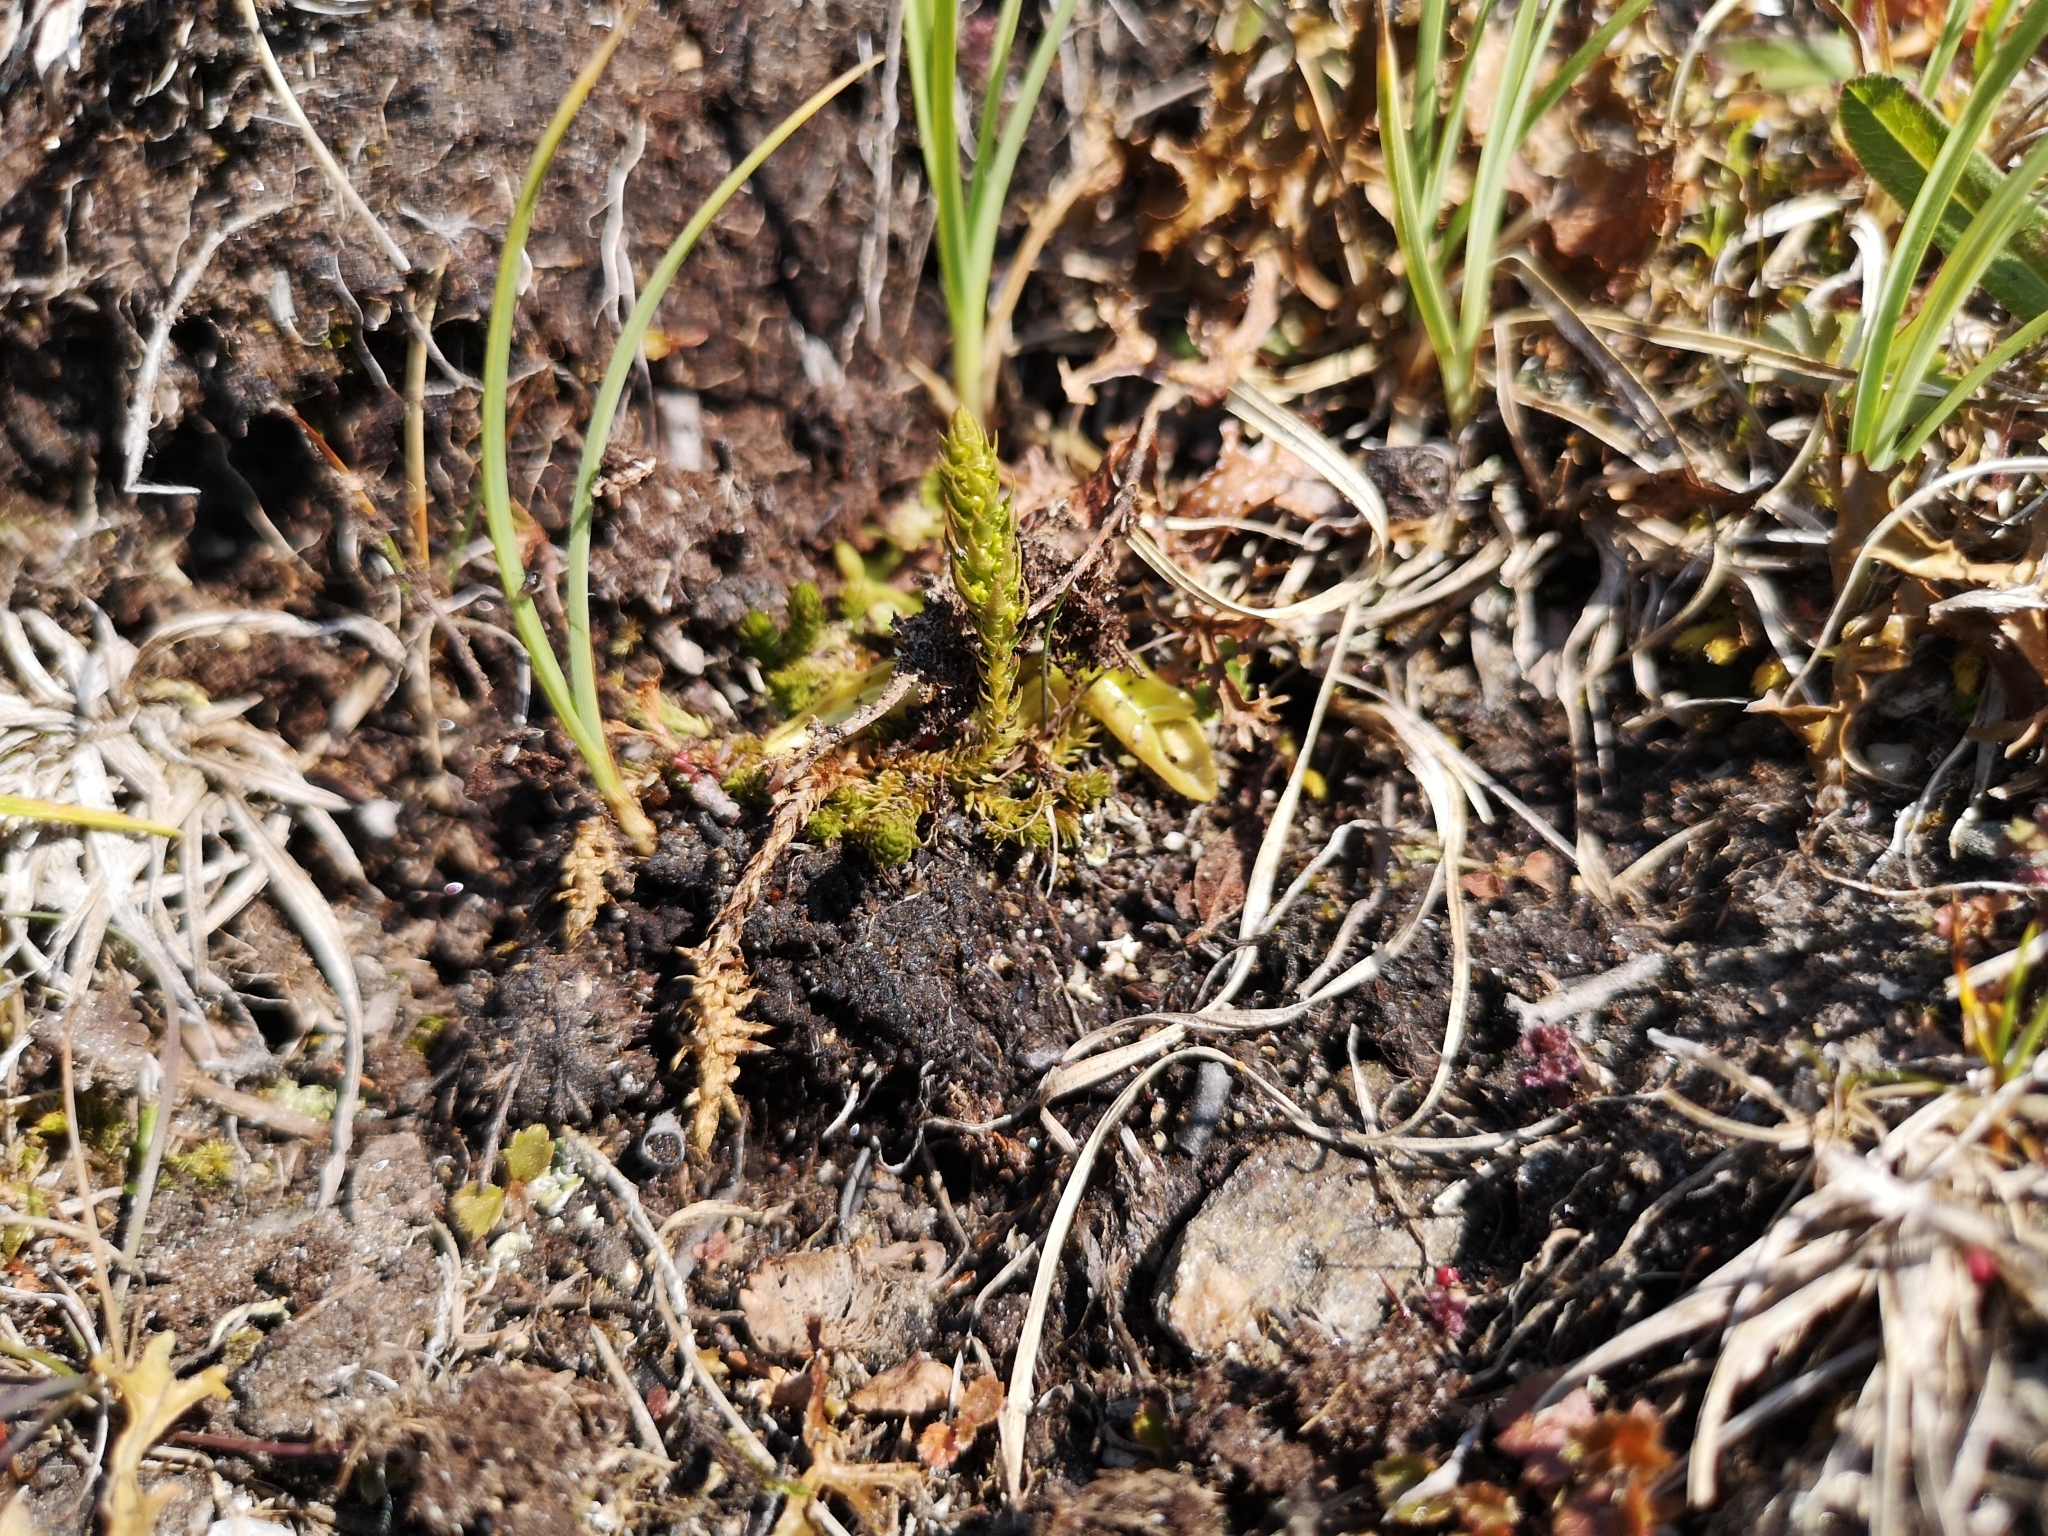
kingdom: Plantae
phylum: Tracheophyta
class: Lycopodiopsida
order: Selaginellales
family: Selaginellaceae
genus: Selaginella
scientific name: Selaginella selaginoides
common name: Prickly mountain-moss
